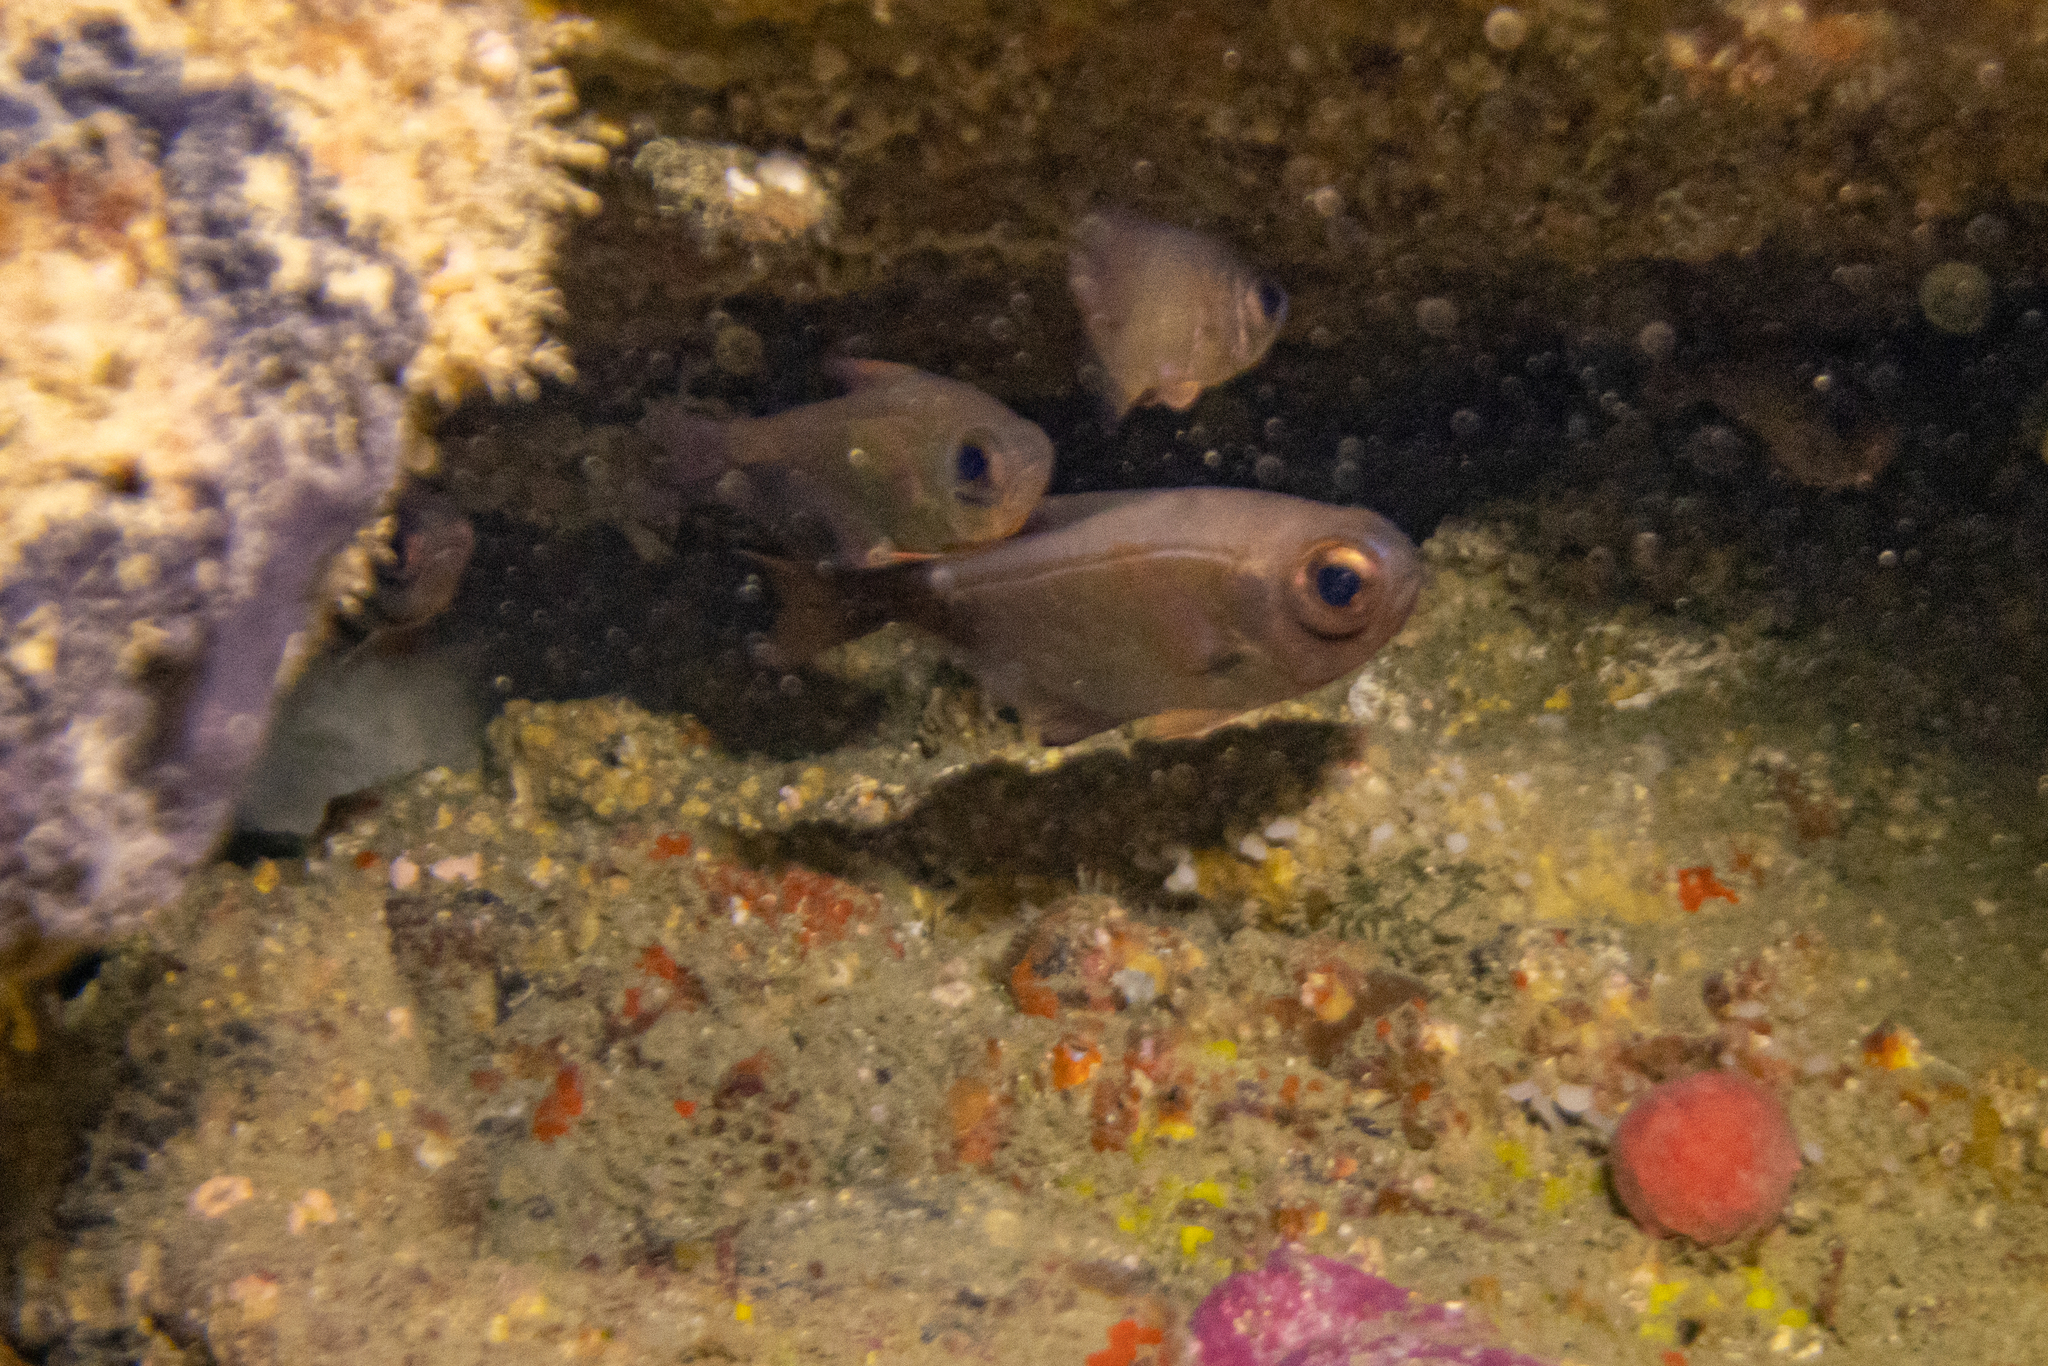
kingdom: Animalia
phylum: Chordata
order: Perciformes
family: Pempheridae
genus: Pempheris
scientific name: Pempheris adspersa
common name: Bigeye
